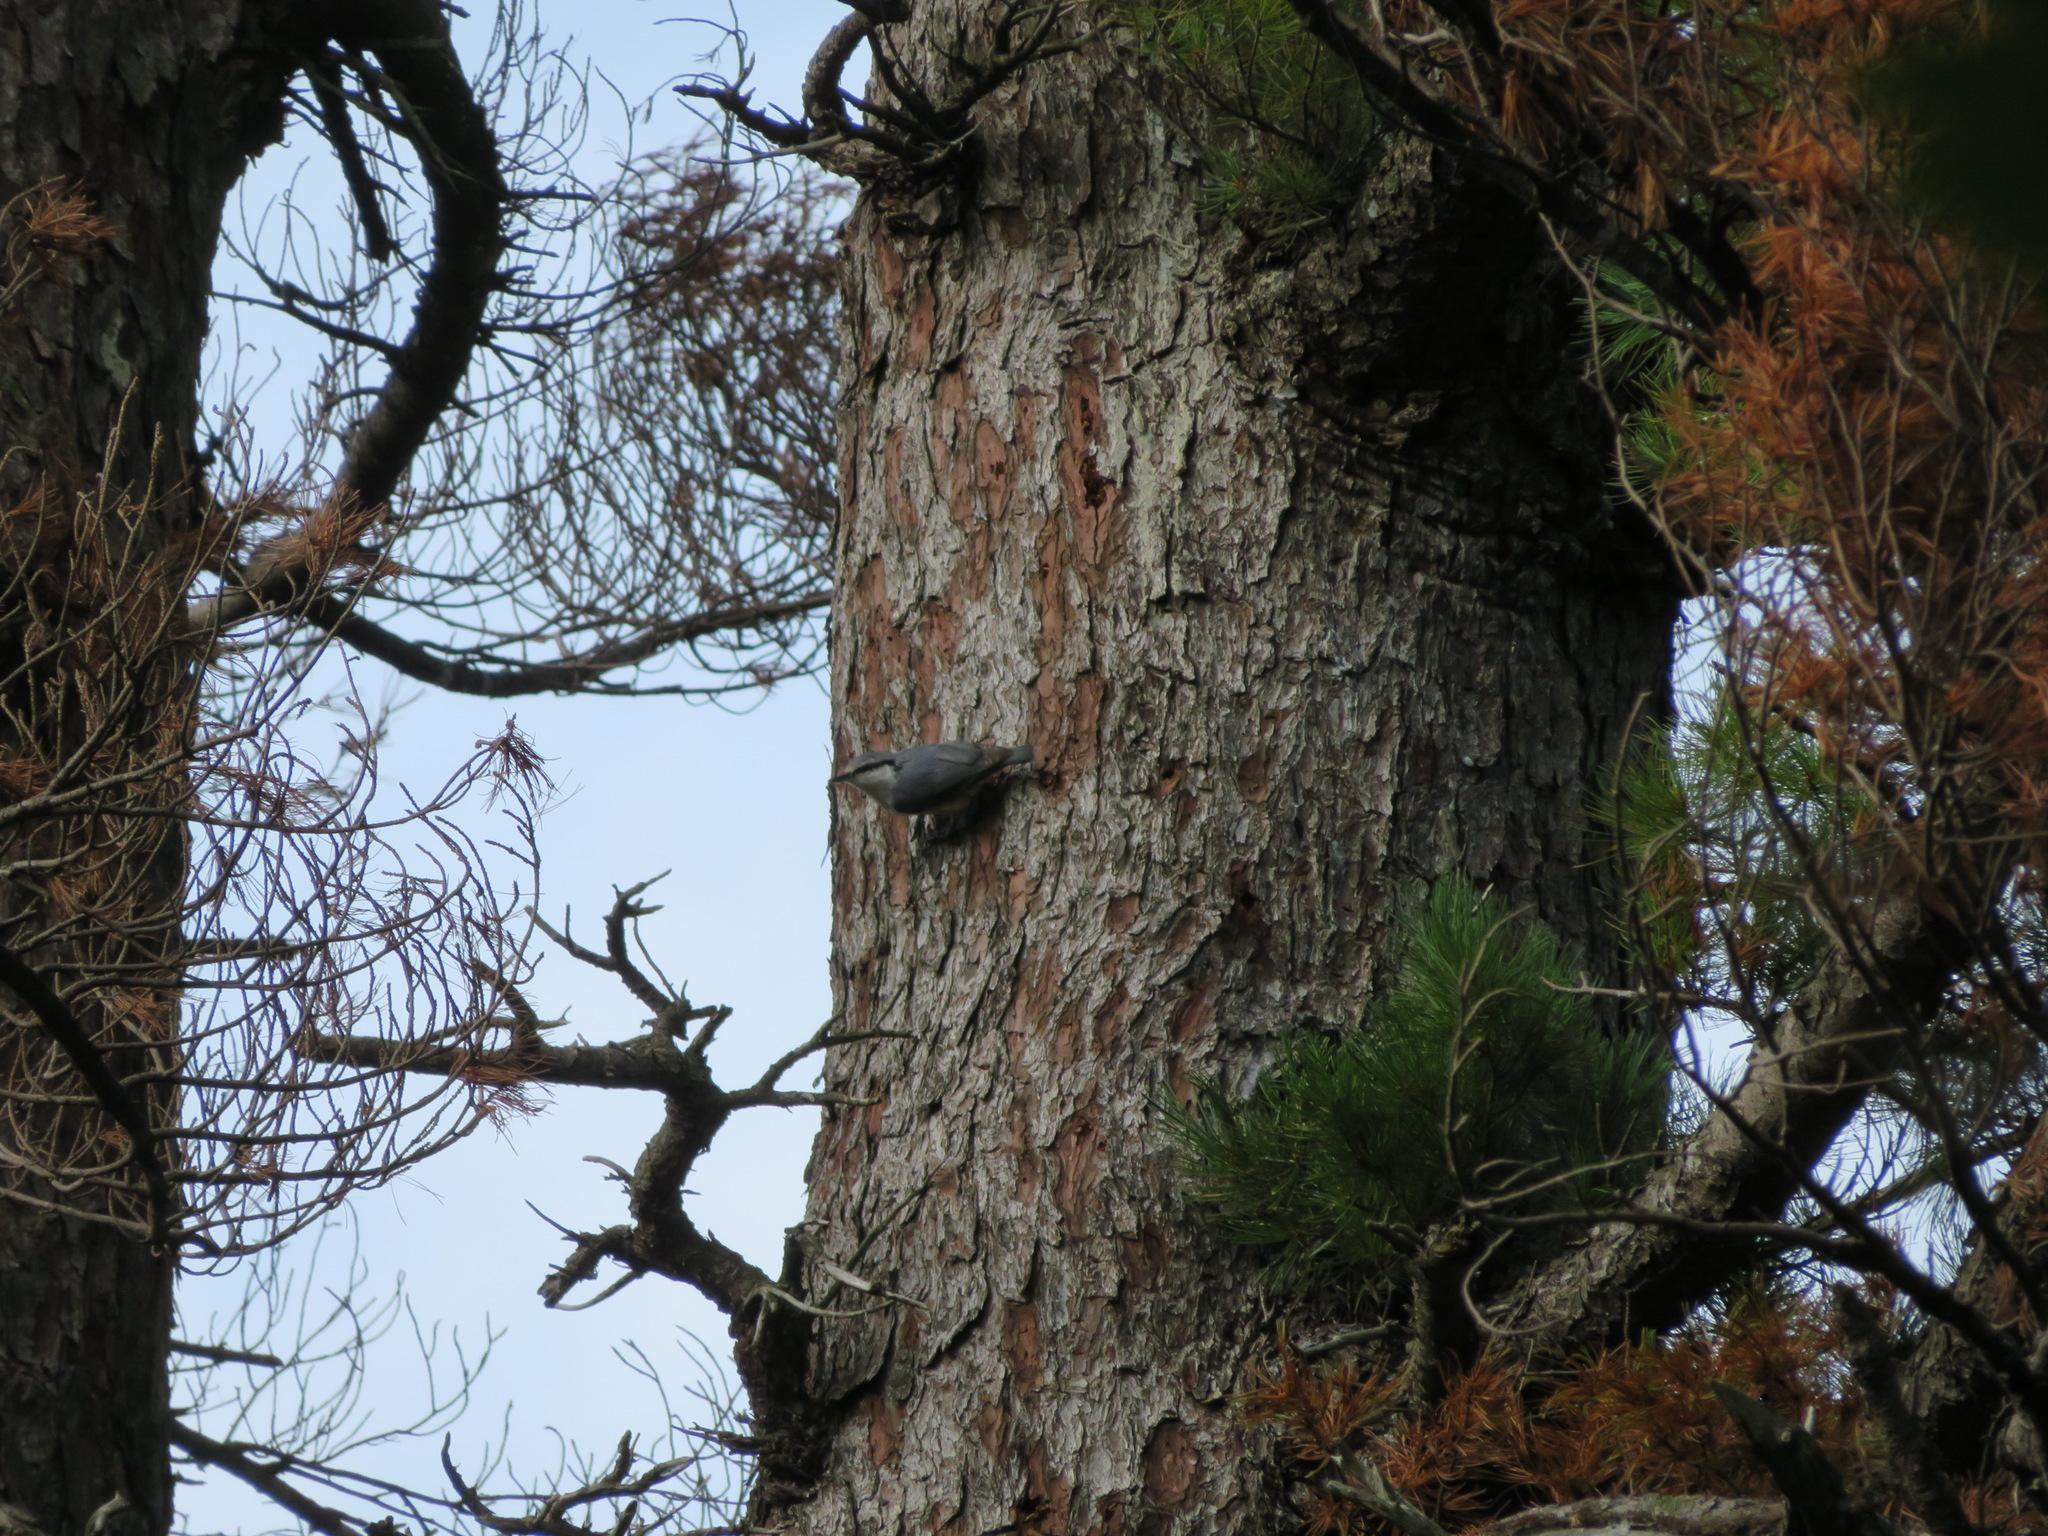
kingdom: Animalia
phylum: Chordata
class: Aves
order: Passeriformes
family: Sittidae
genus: Sitta
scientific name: Sitta europaea
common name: Eurasian nuthatch
